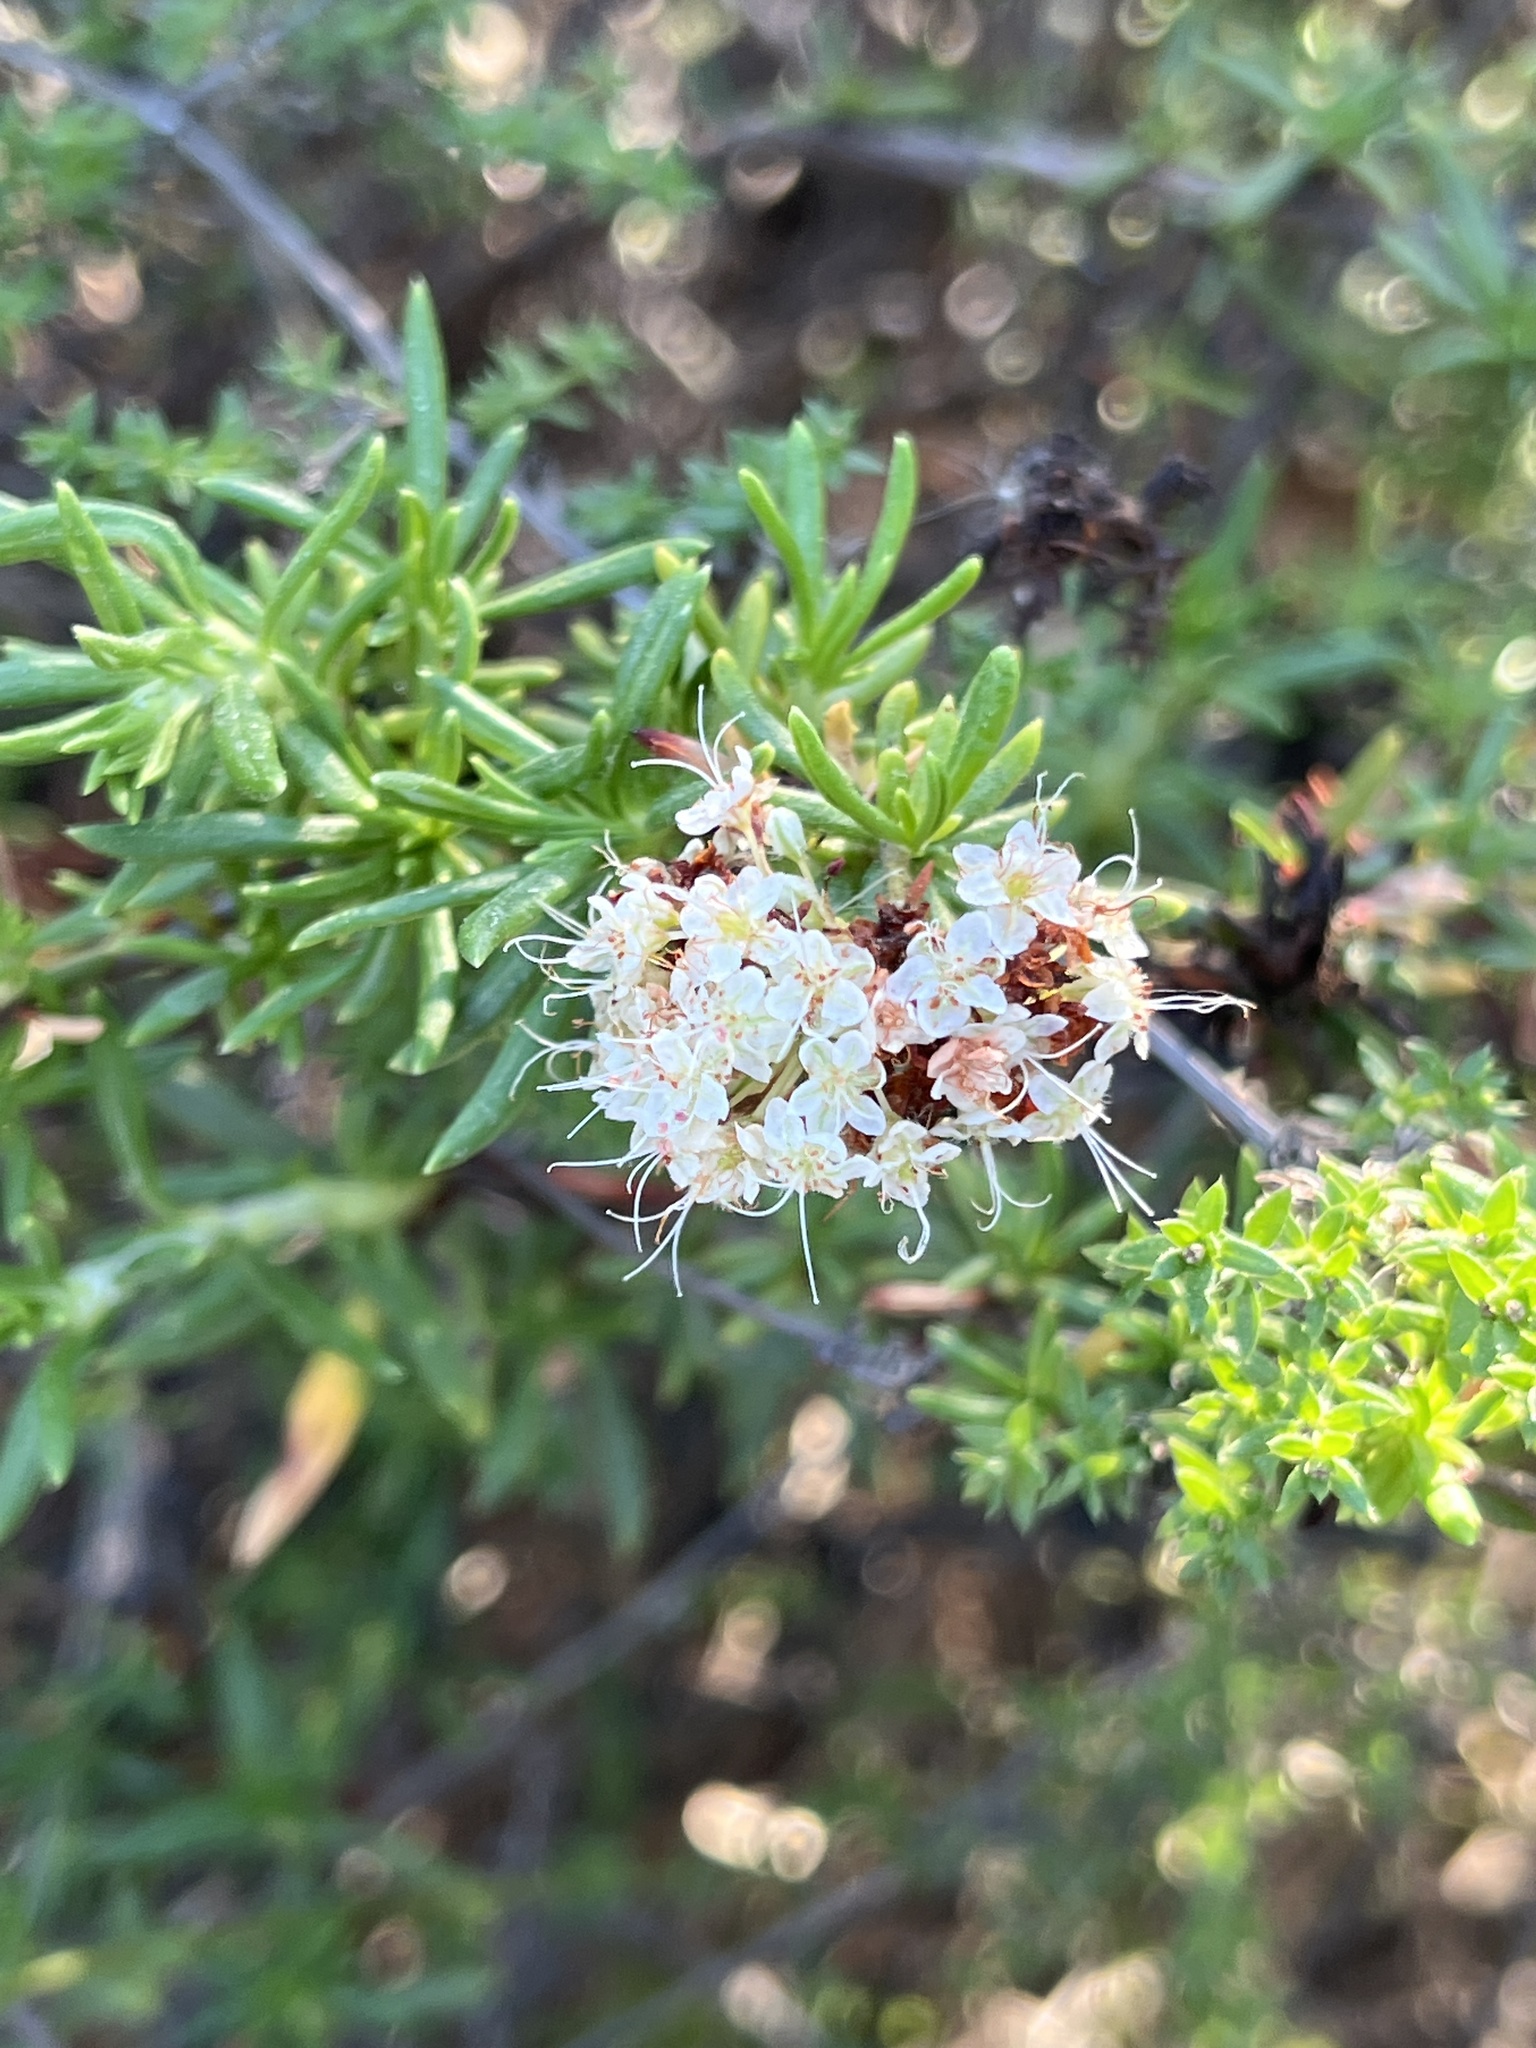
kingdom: Plantae
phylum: Tracheophyta
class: Magnoliopsida
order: Caryophyllales
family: Polygonaceae
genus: Eriogonum
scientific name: Eriogonum fasciculatum
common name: California wild buckwheat
